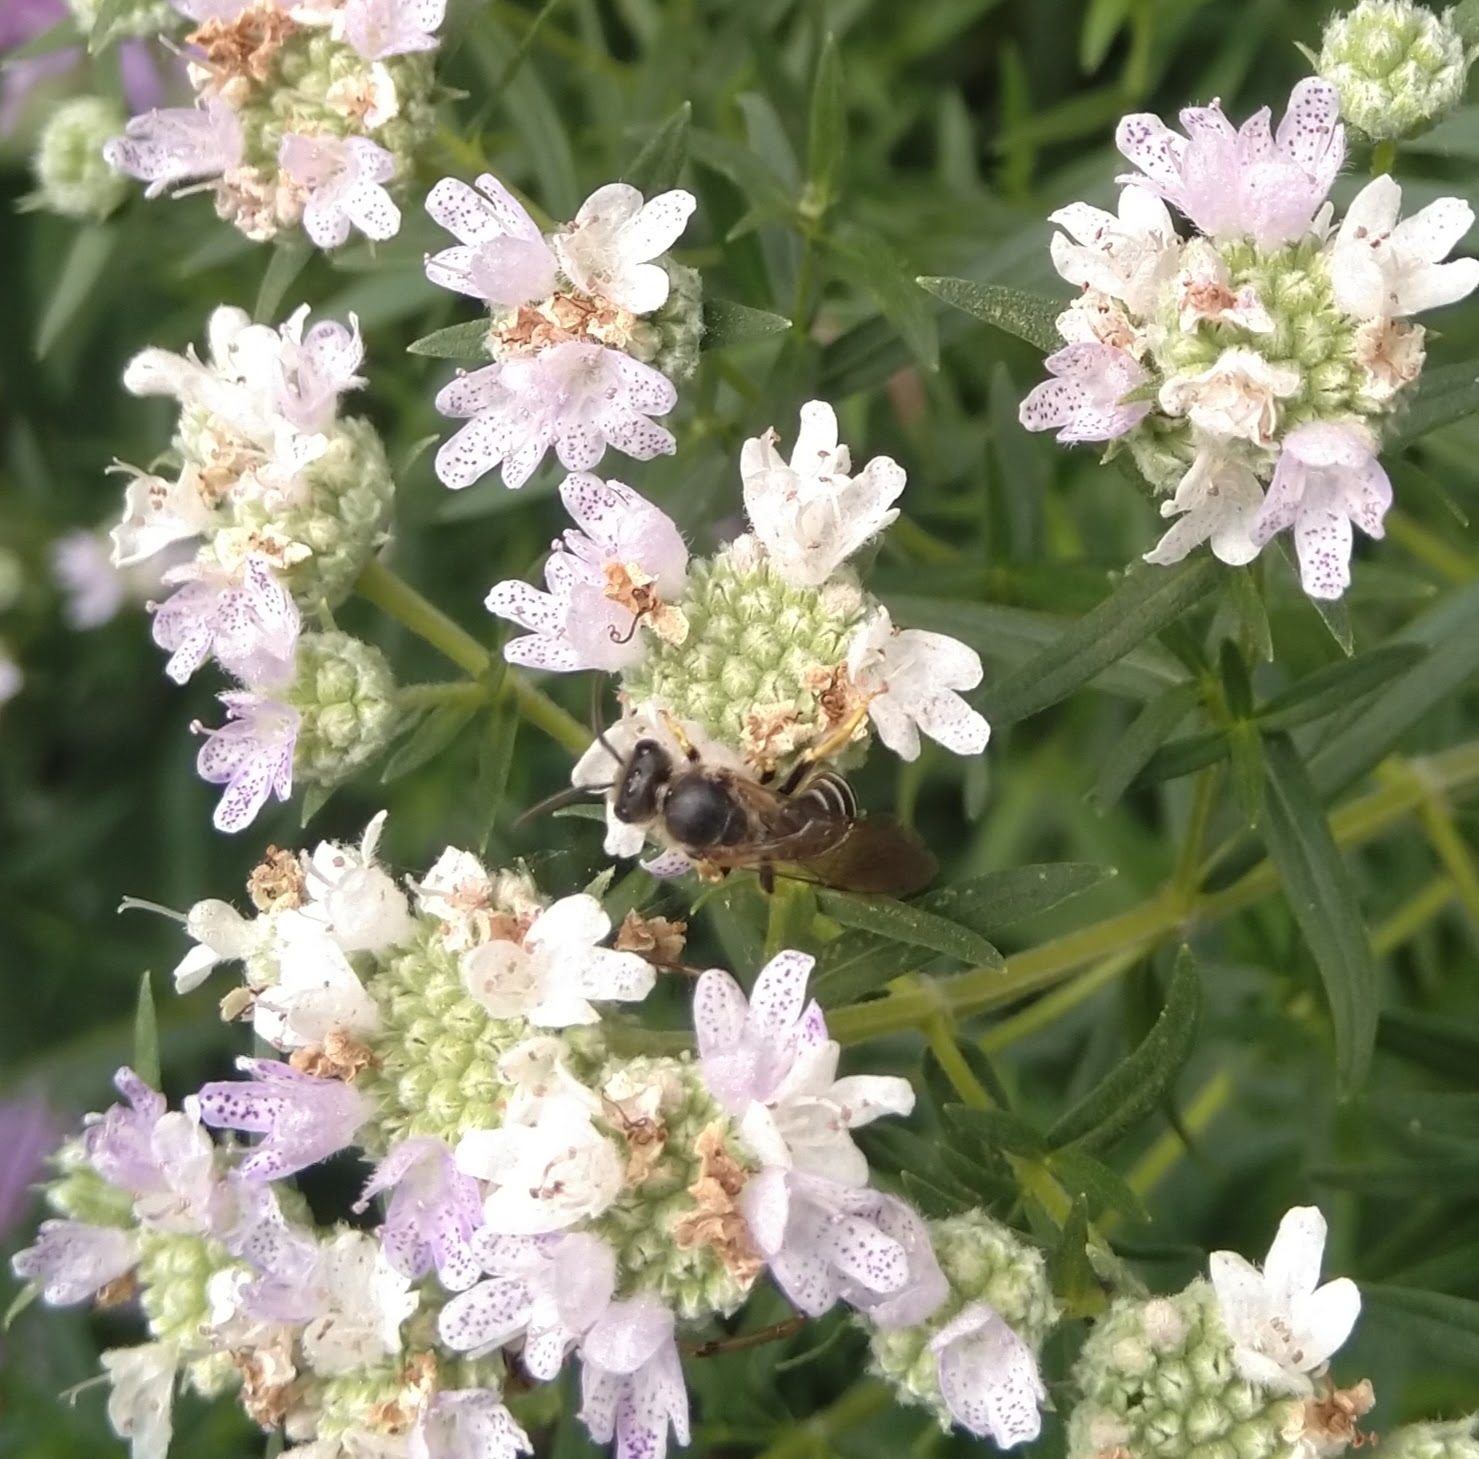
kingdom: Animalia
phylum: Arthropoda
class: Insecta
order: Hymenoptera
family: Halictidae
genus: Halictus
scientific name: Halictus rubicundus
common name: Orange-legged furrow bee
